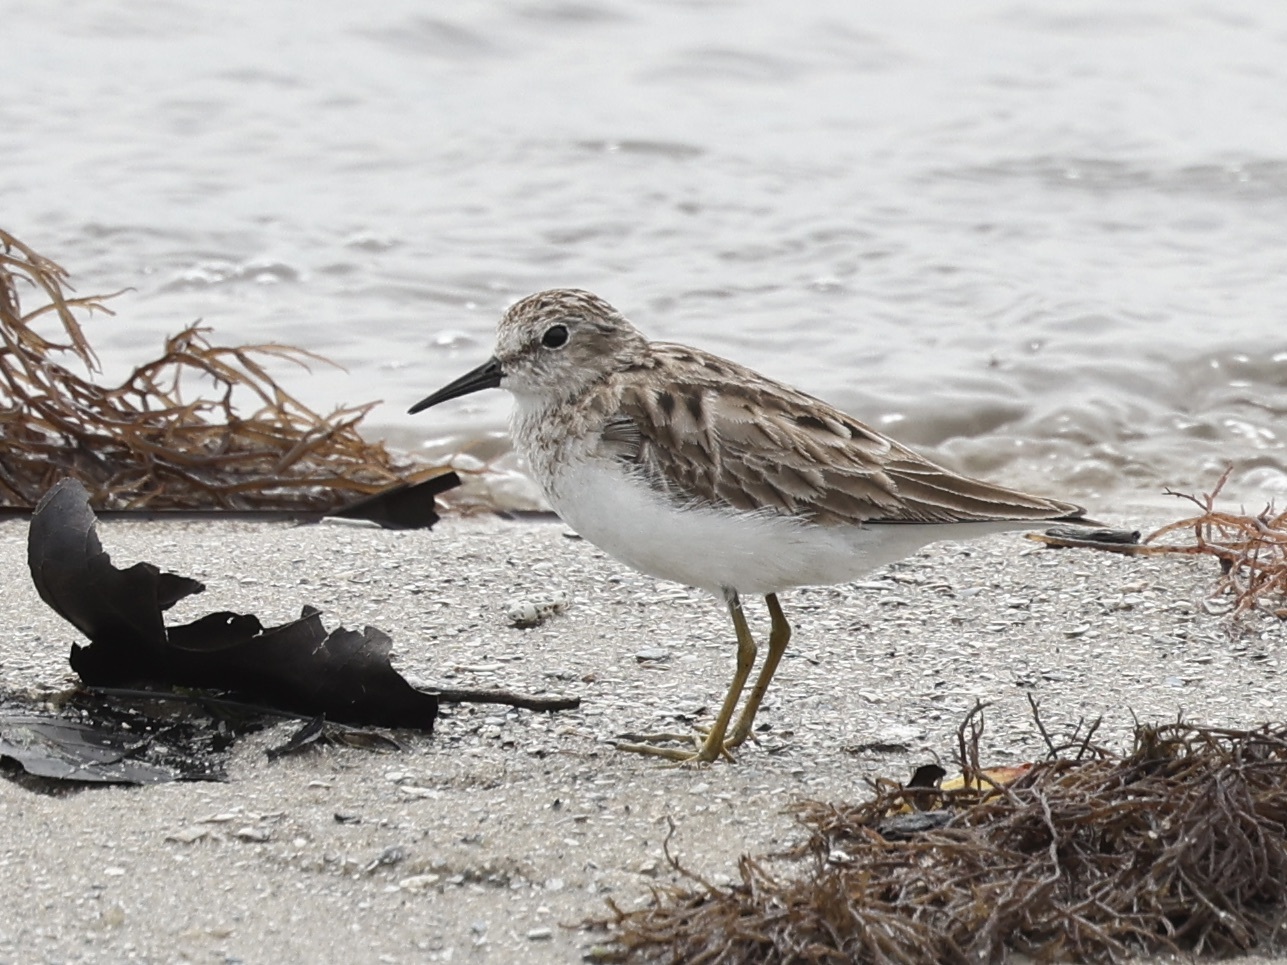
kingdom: Animalia
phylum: Chordata
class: Aves
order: Charadriiformes
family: Scolopacidae
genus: Calidris
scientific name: Calidris minutilla
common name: Least sandpiper
